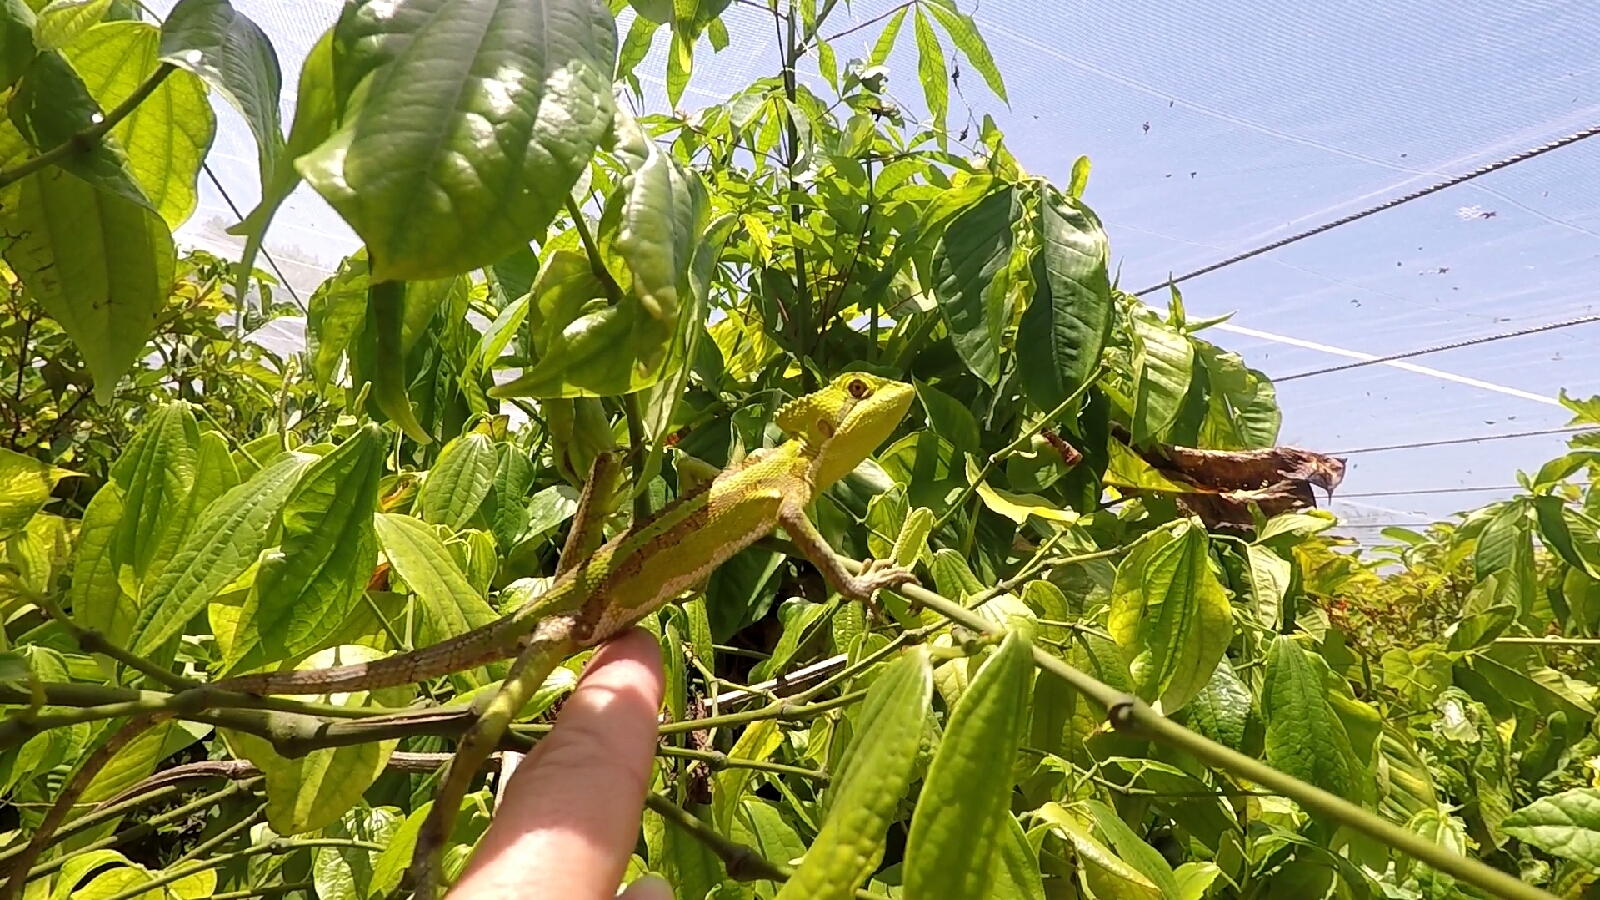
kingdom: Animalia
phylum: Chordata
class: Squamata
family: Corytophanidae
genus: Laemanctus
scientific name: Laemanctus serratus
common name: Serrated casquehead iguana
